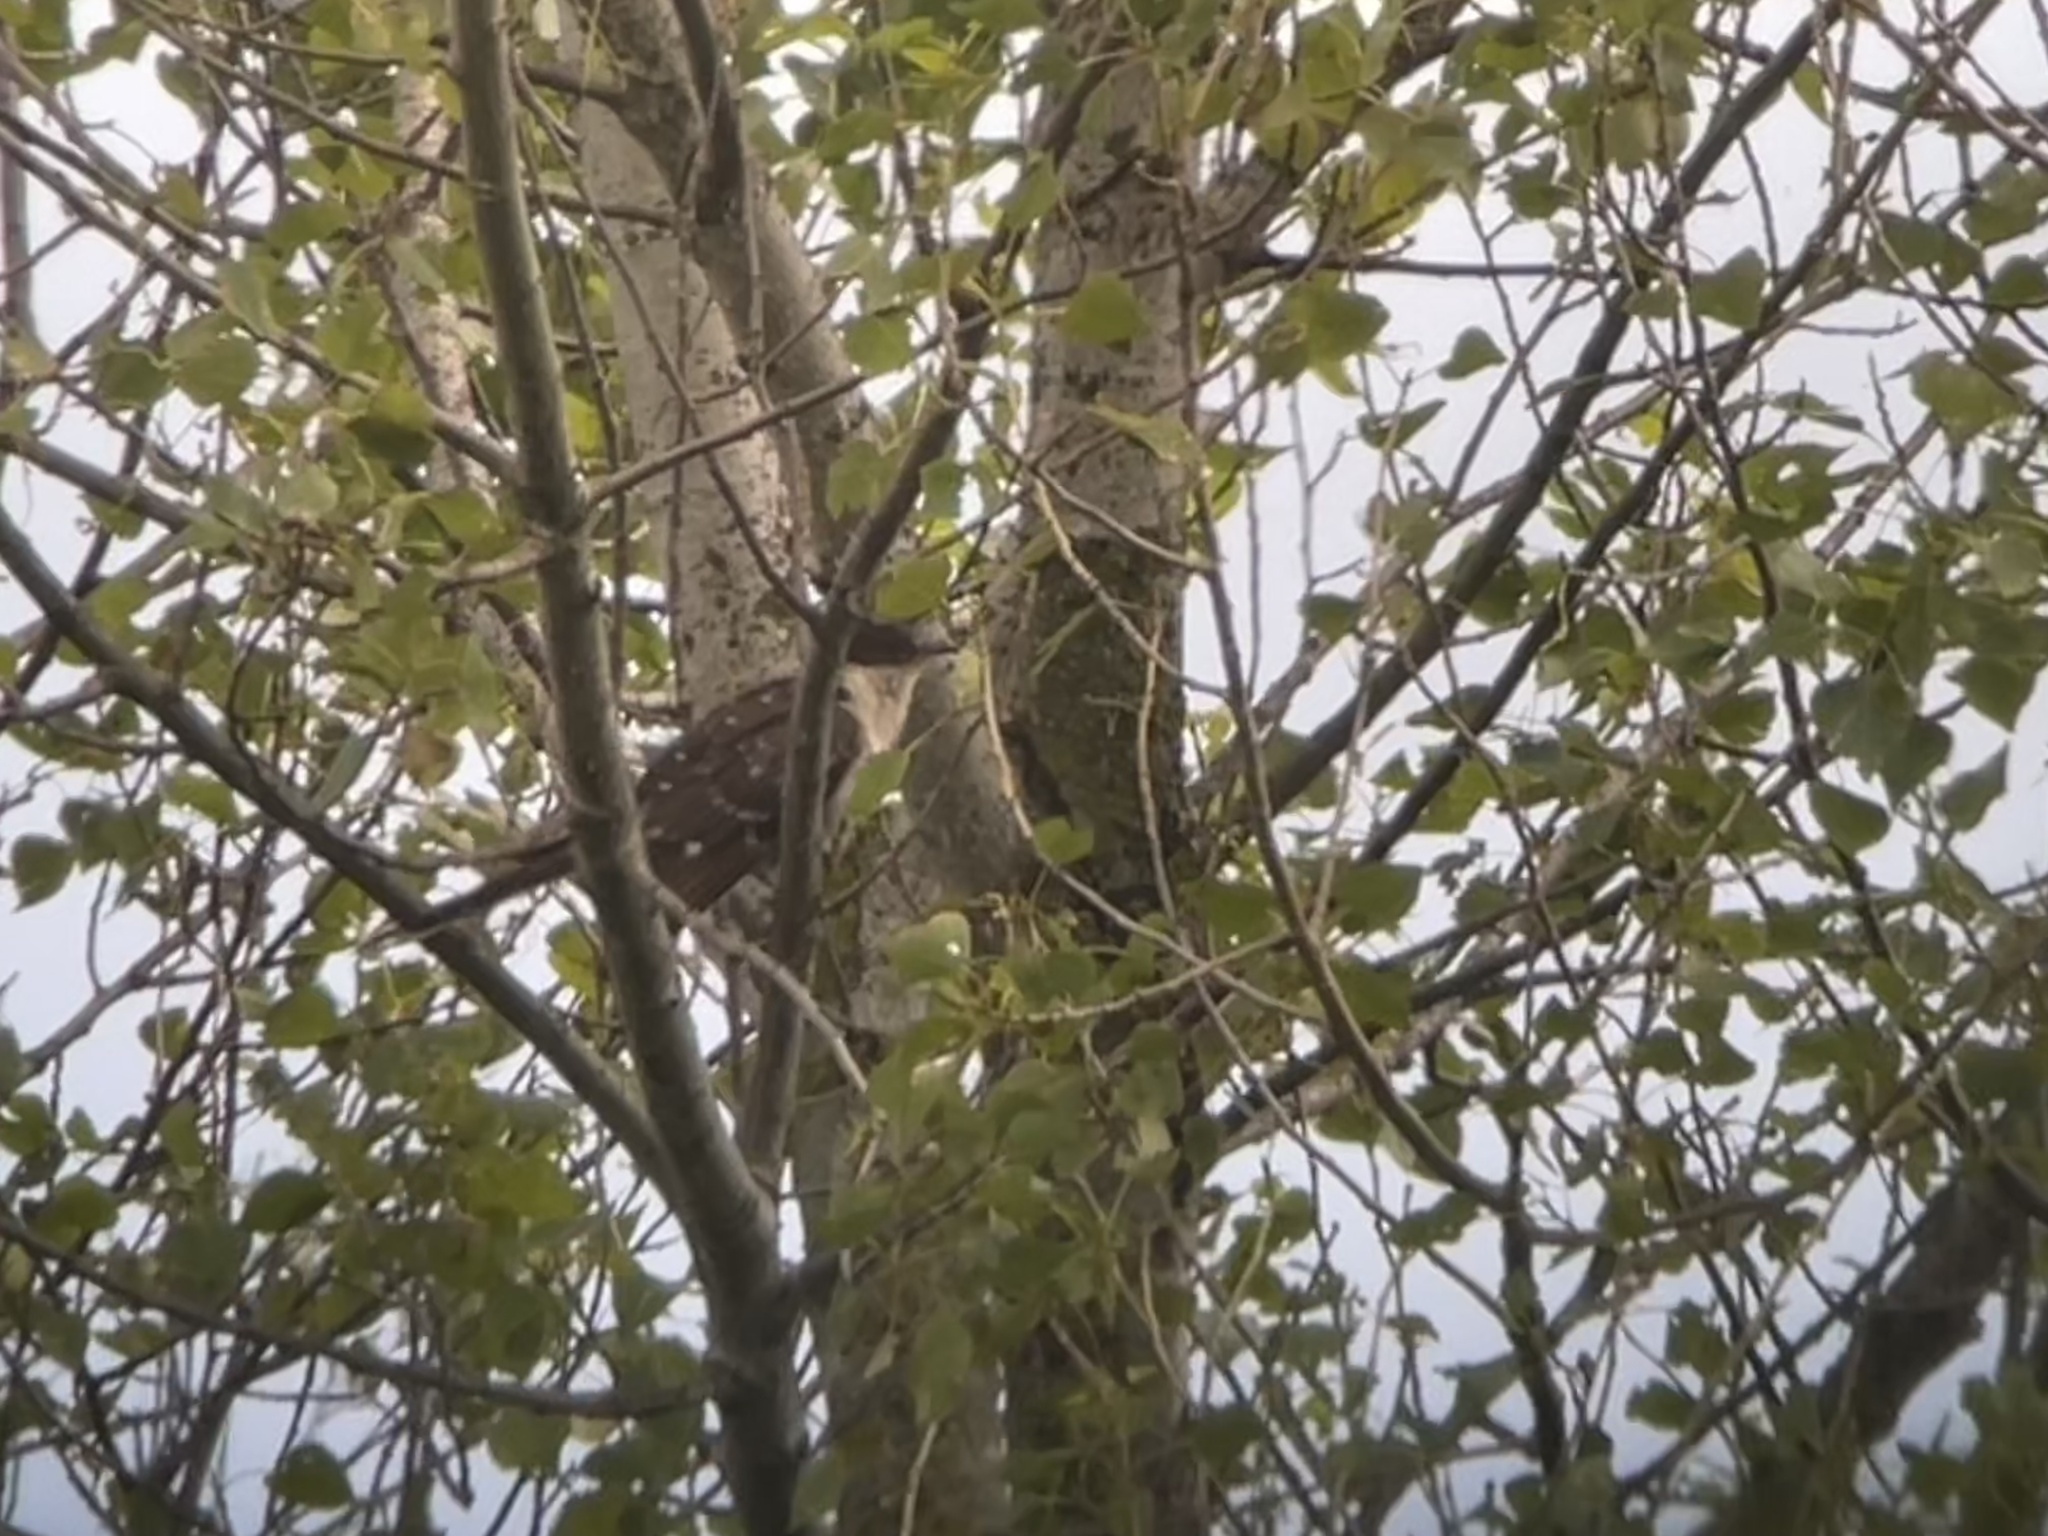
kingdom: Animalia
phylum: Chordata
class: Aves
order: Cuculiformes
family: Cuculidae
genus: Clamator
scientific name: Clamator glandarius
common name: Great spotted cuckoo
